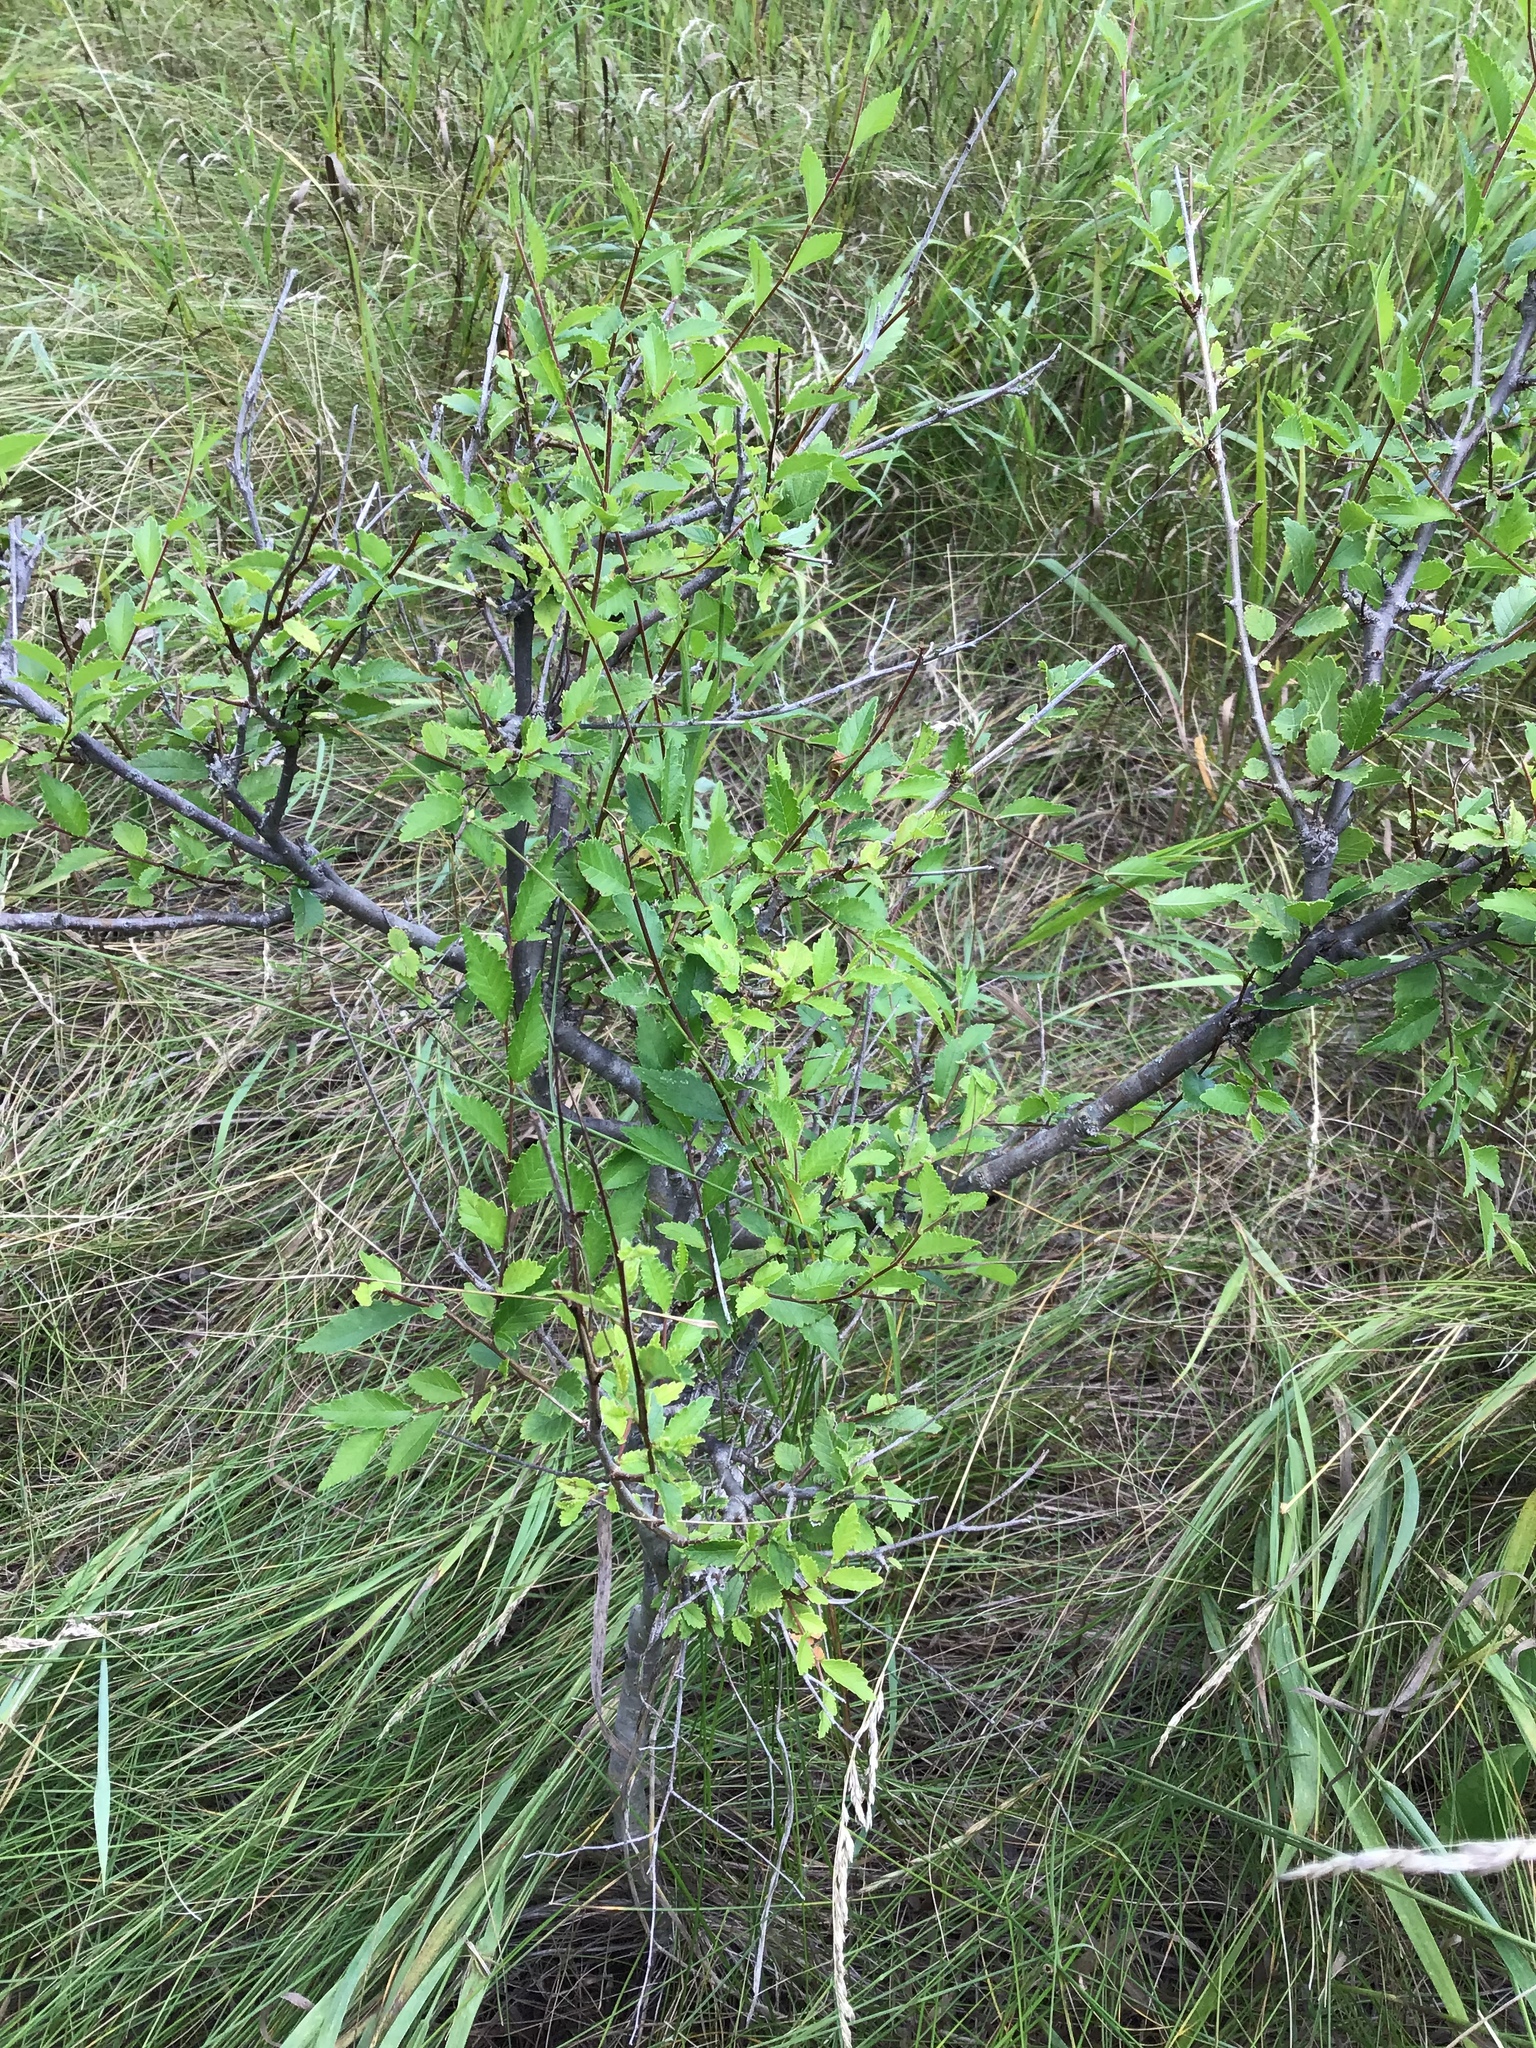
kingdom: Plantae
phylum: Tracheophyta
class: Magnoliopsida
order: Rosales
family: Ulmaceae
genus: Ulmus
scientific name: Ulmus pumila
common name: Siberian elm
